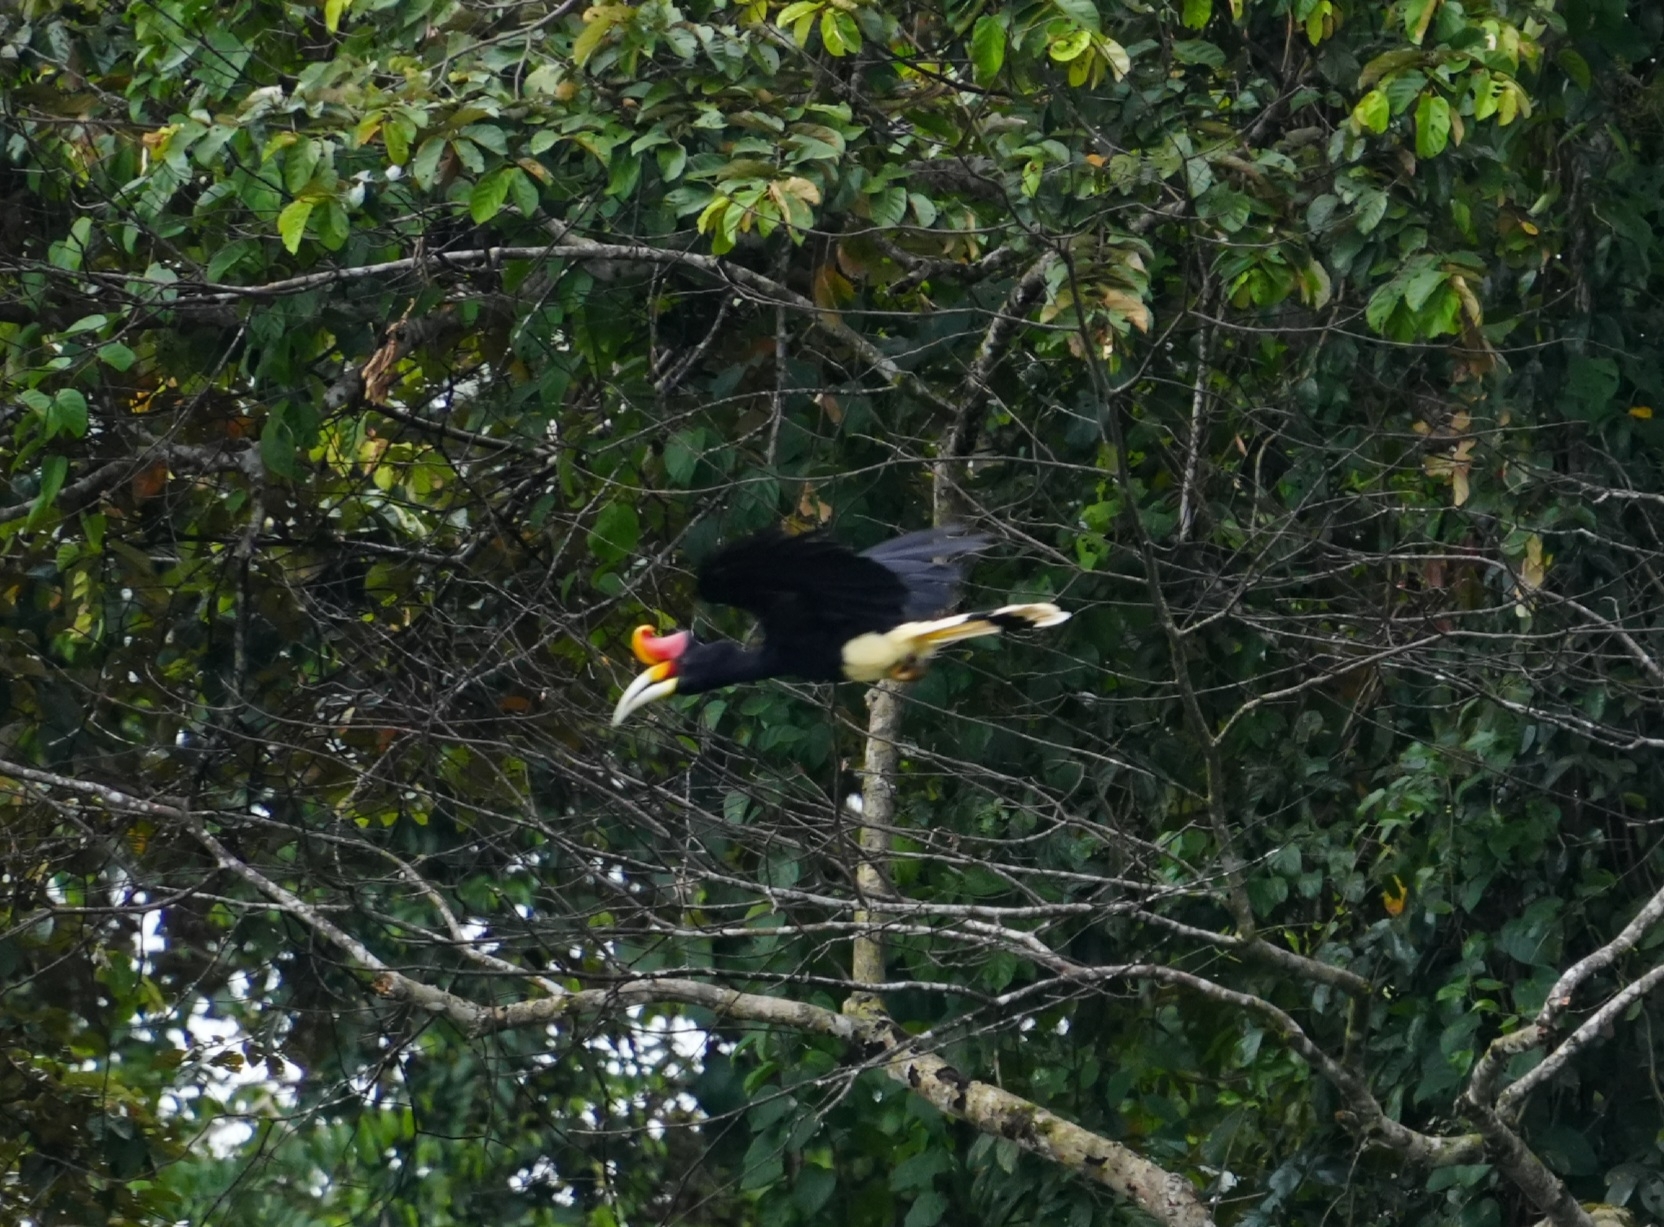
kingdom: Animalia
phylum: Chordata
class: Aves
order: Bucerotiformes
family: Bucerotidae
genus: Buceros
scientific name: Buceros rhinoceros
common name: Rhinoceros hornbill
